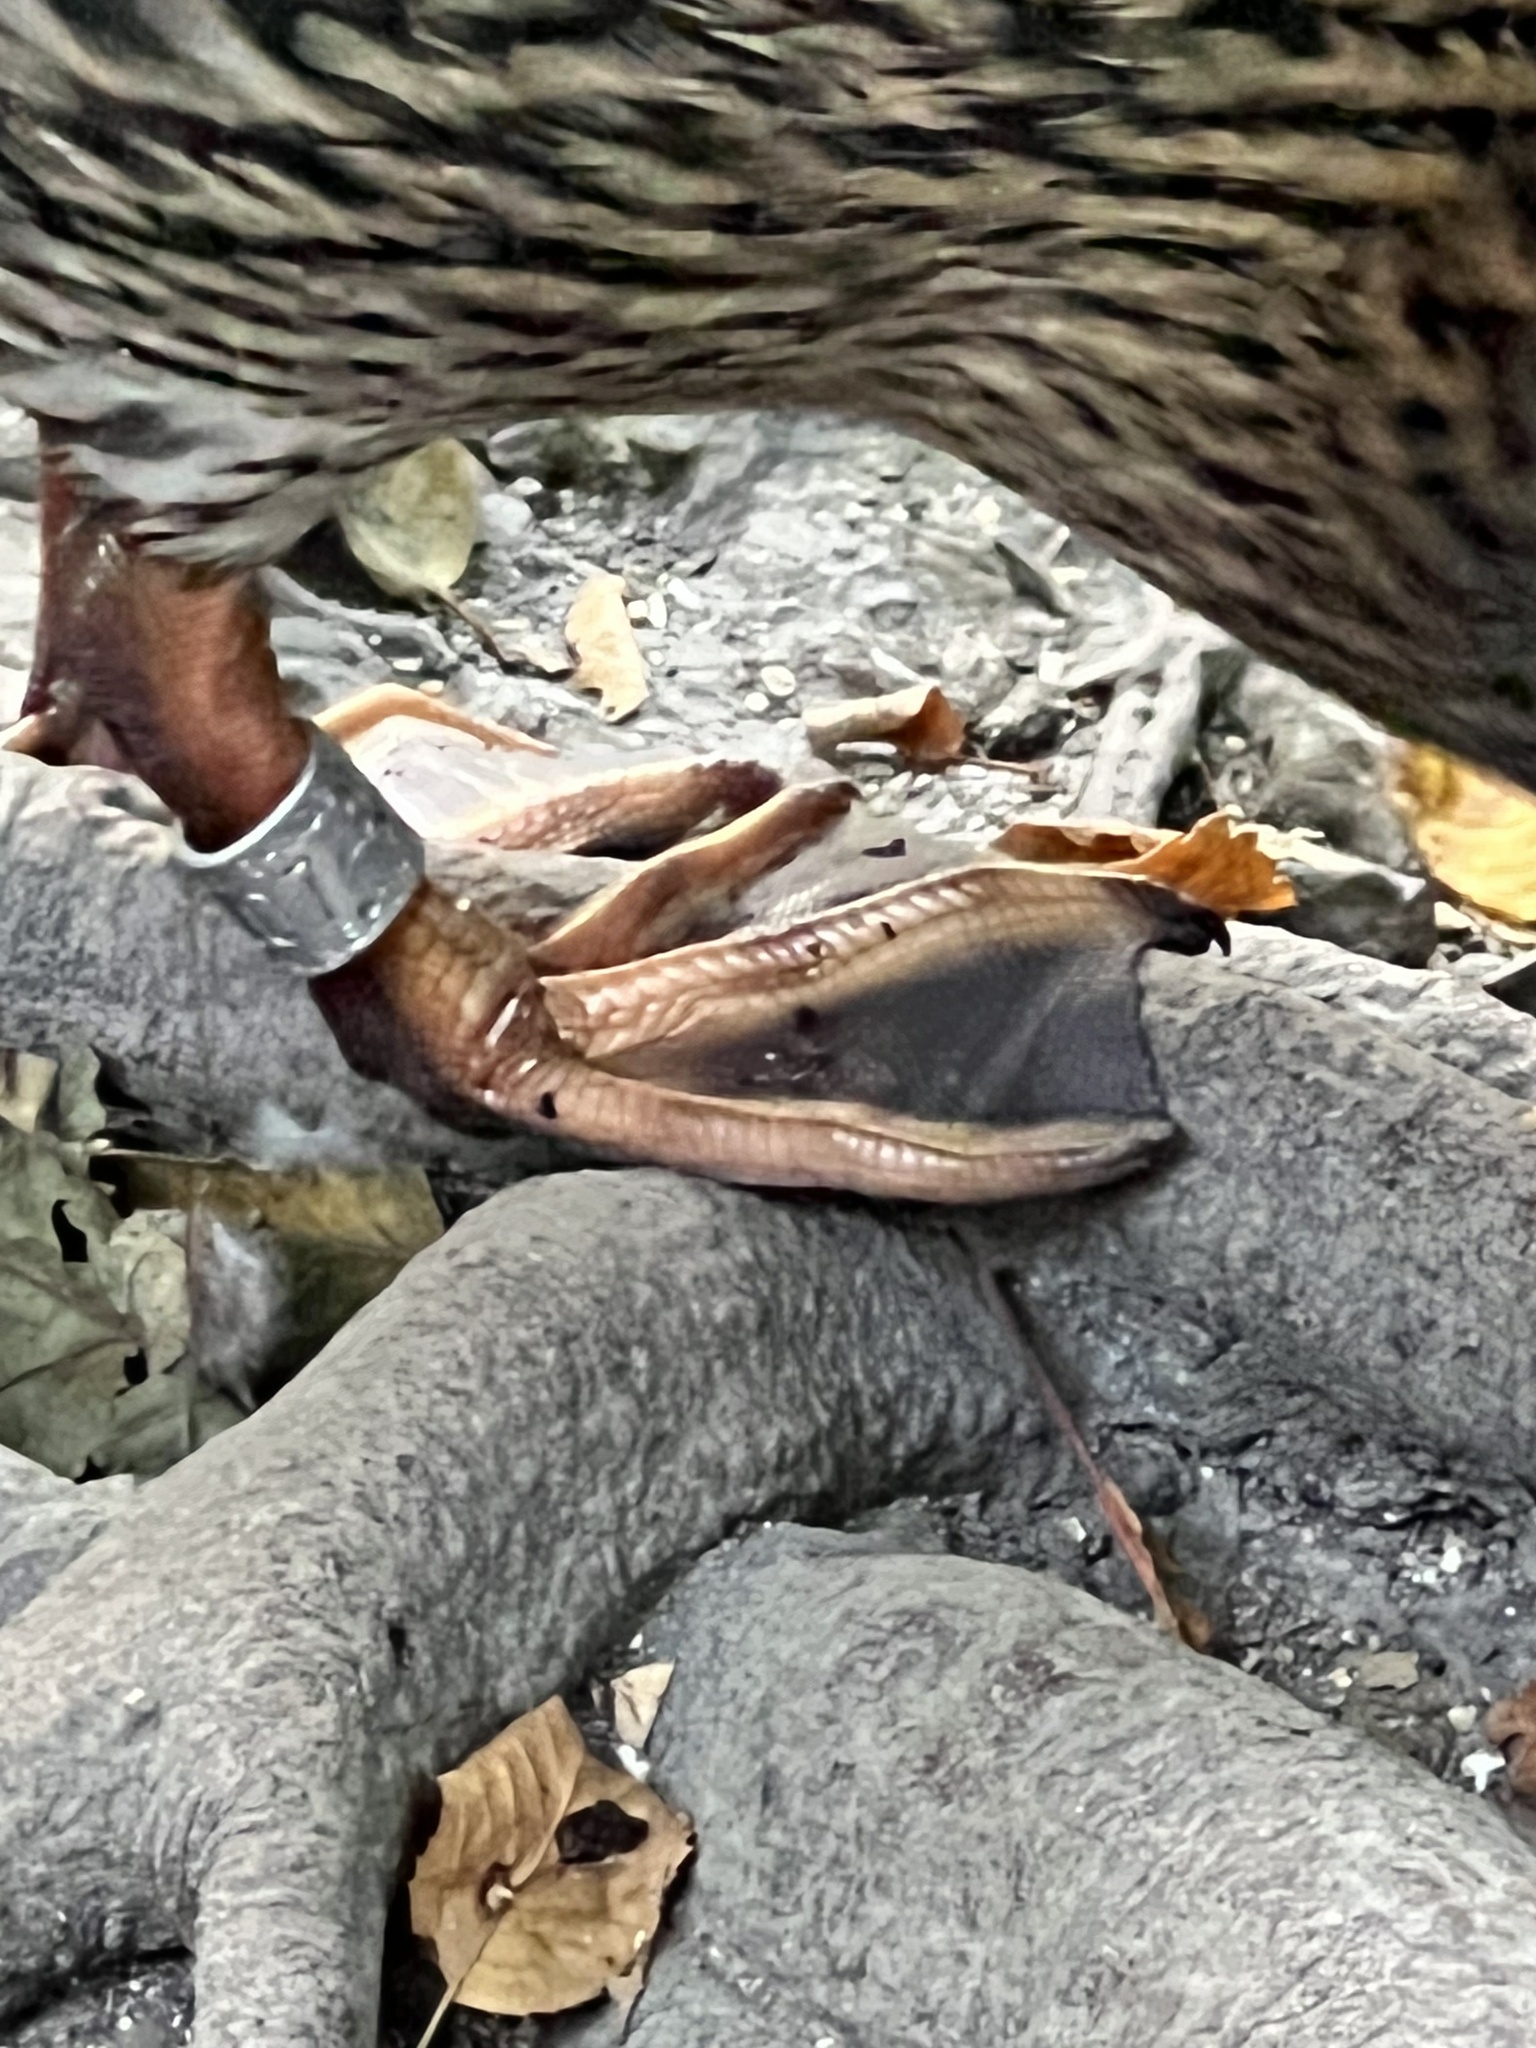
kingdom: Animalia
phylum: Chordata
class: Aves
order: Anseriformes
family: Anatidae
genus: Anas
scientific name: Anas platyrhynchos
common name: Mallard
